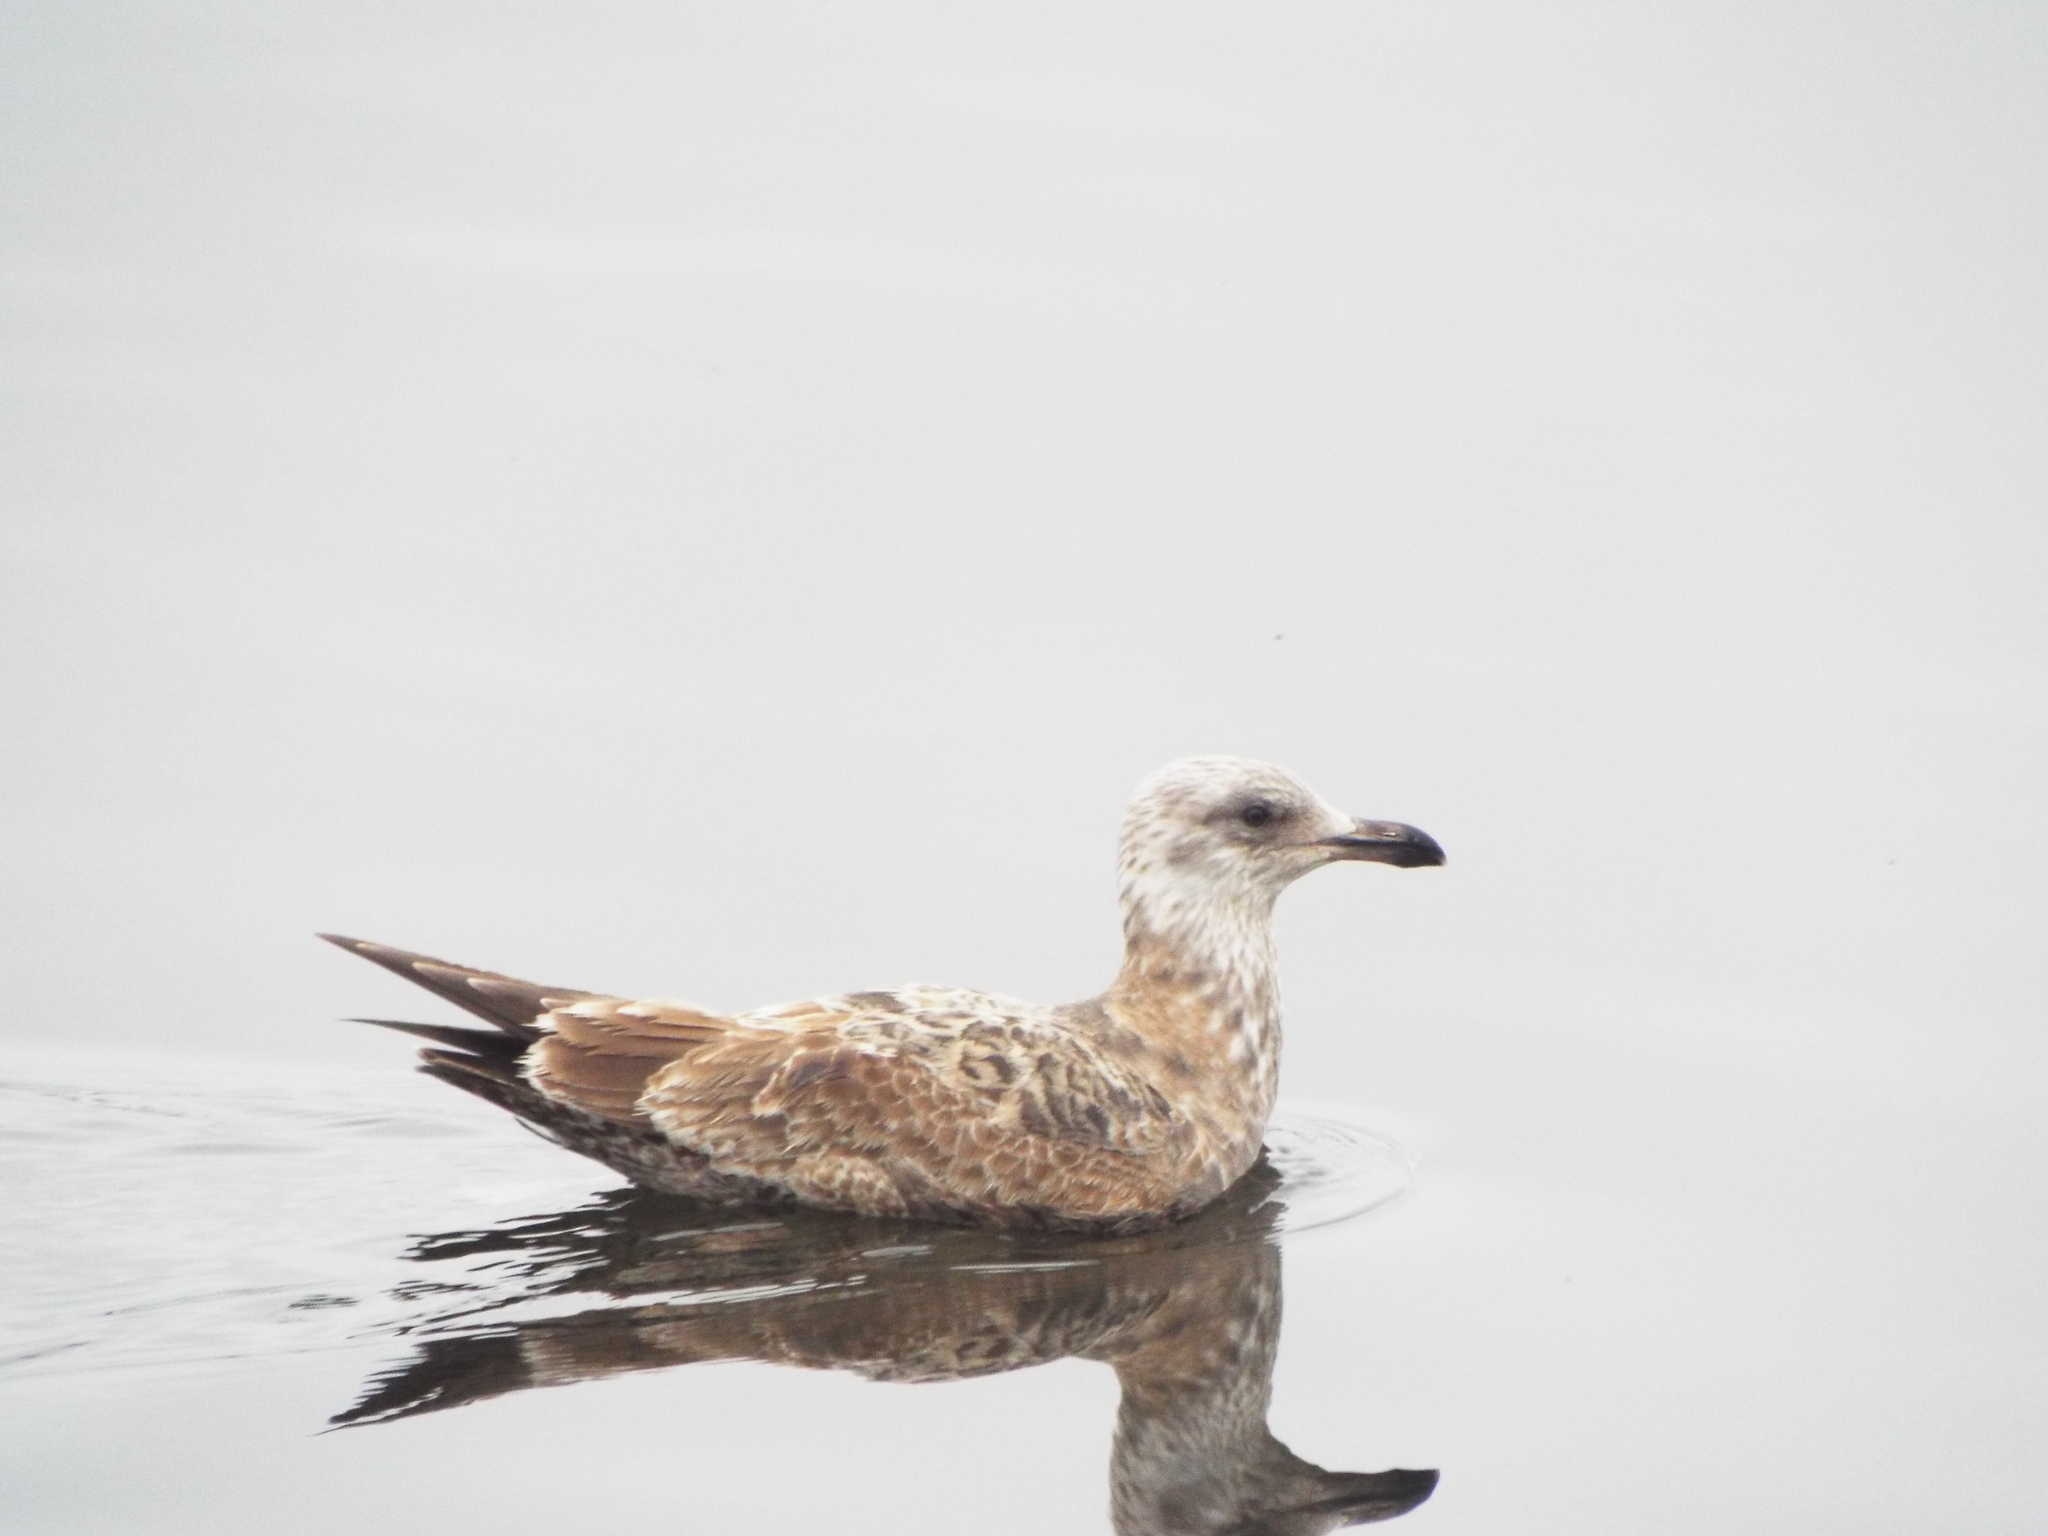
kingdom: Animalia
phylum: Chordata
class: Aves
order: Charadriiformes
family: Laridae
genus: Larus
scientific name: Larus argentatus
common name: Herring gull
